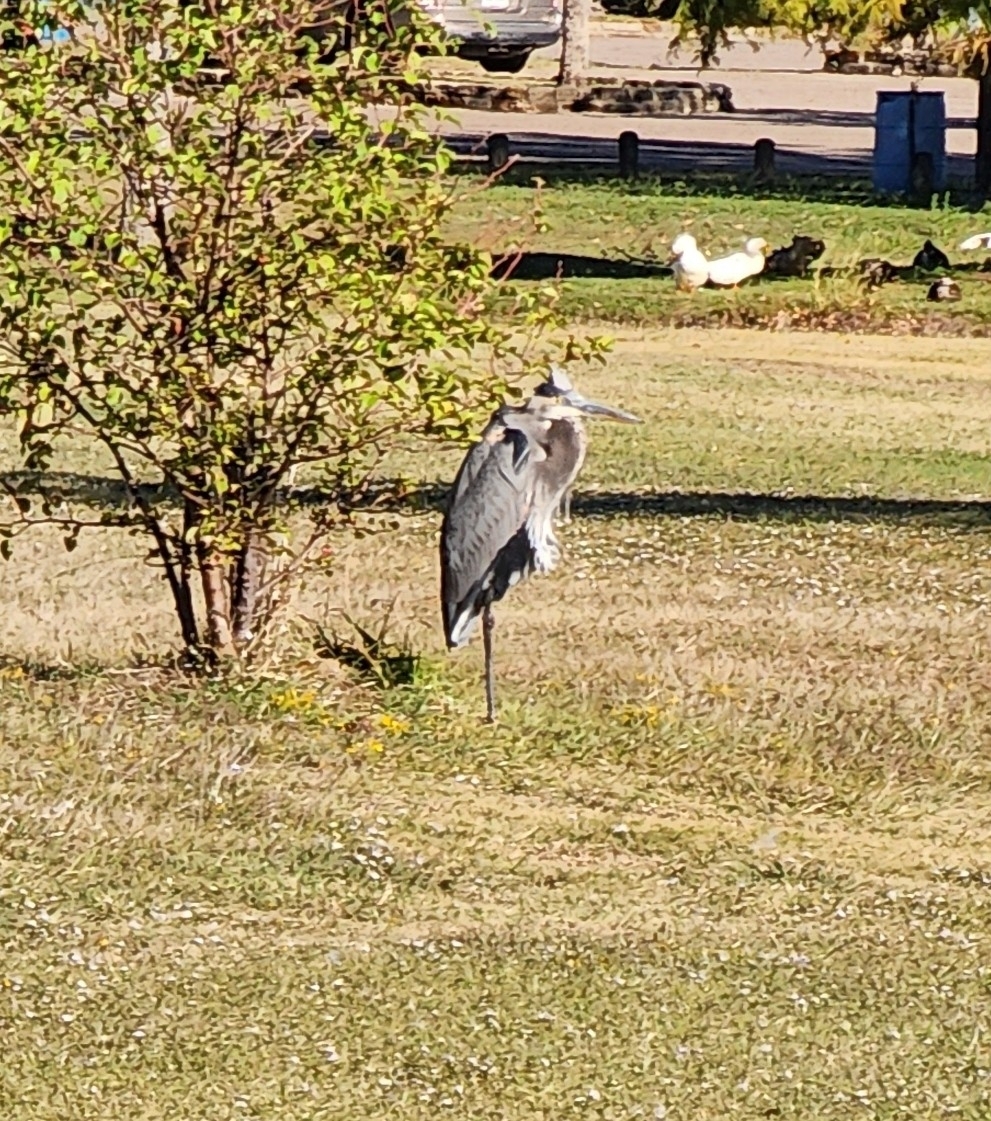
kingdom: Animalia
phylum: Chordata
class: Aves
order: Pelecaniformes
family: Ardeidae
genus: Ardea
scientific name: Ardea herodias
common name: Great blue heron
